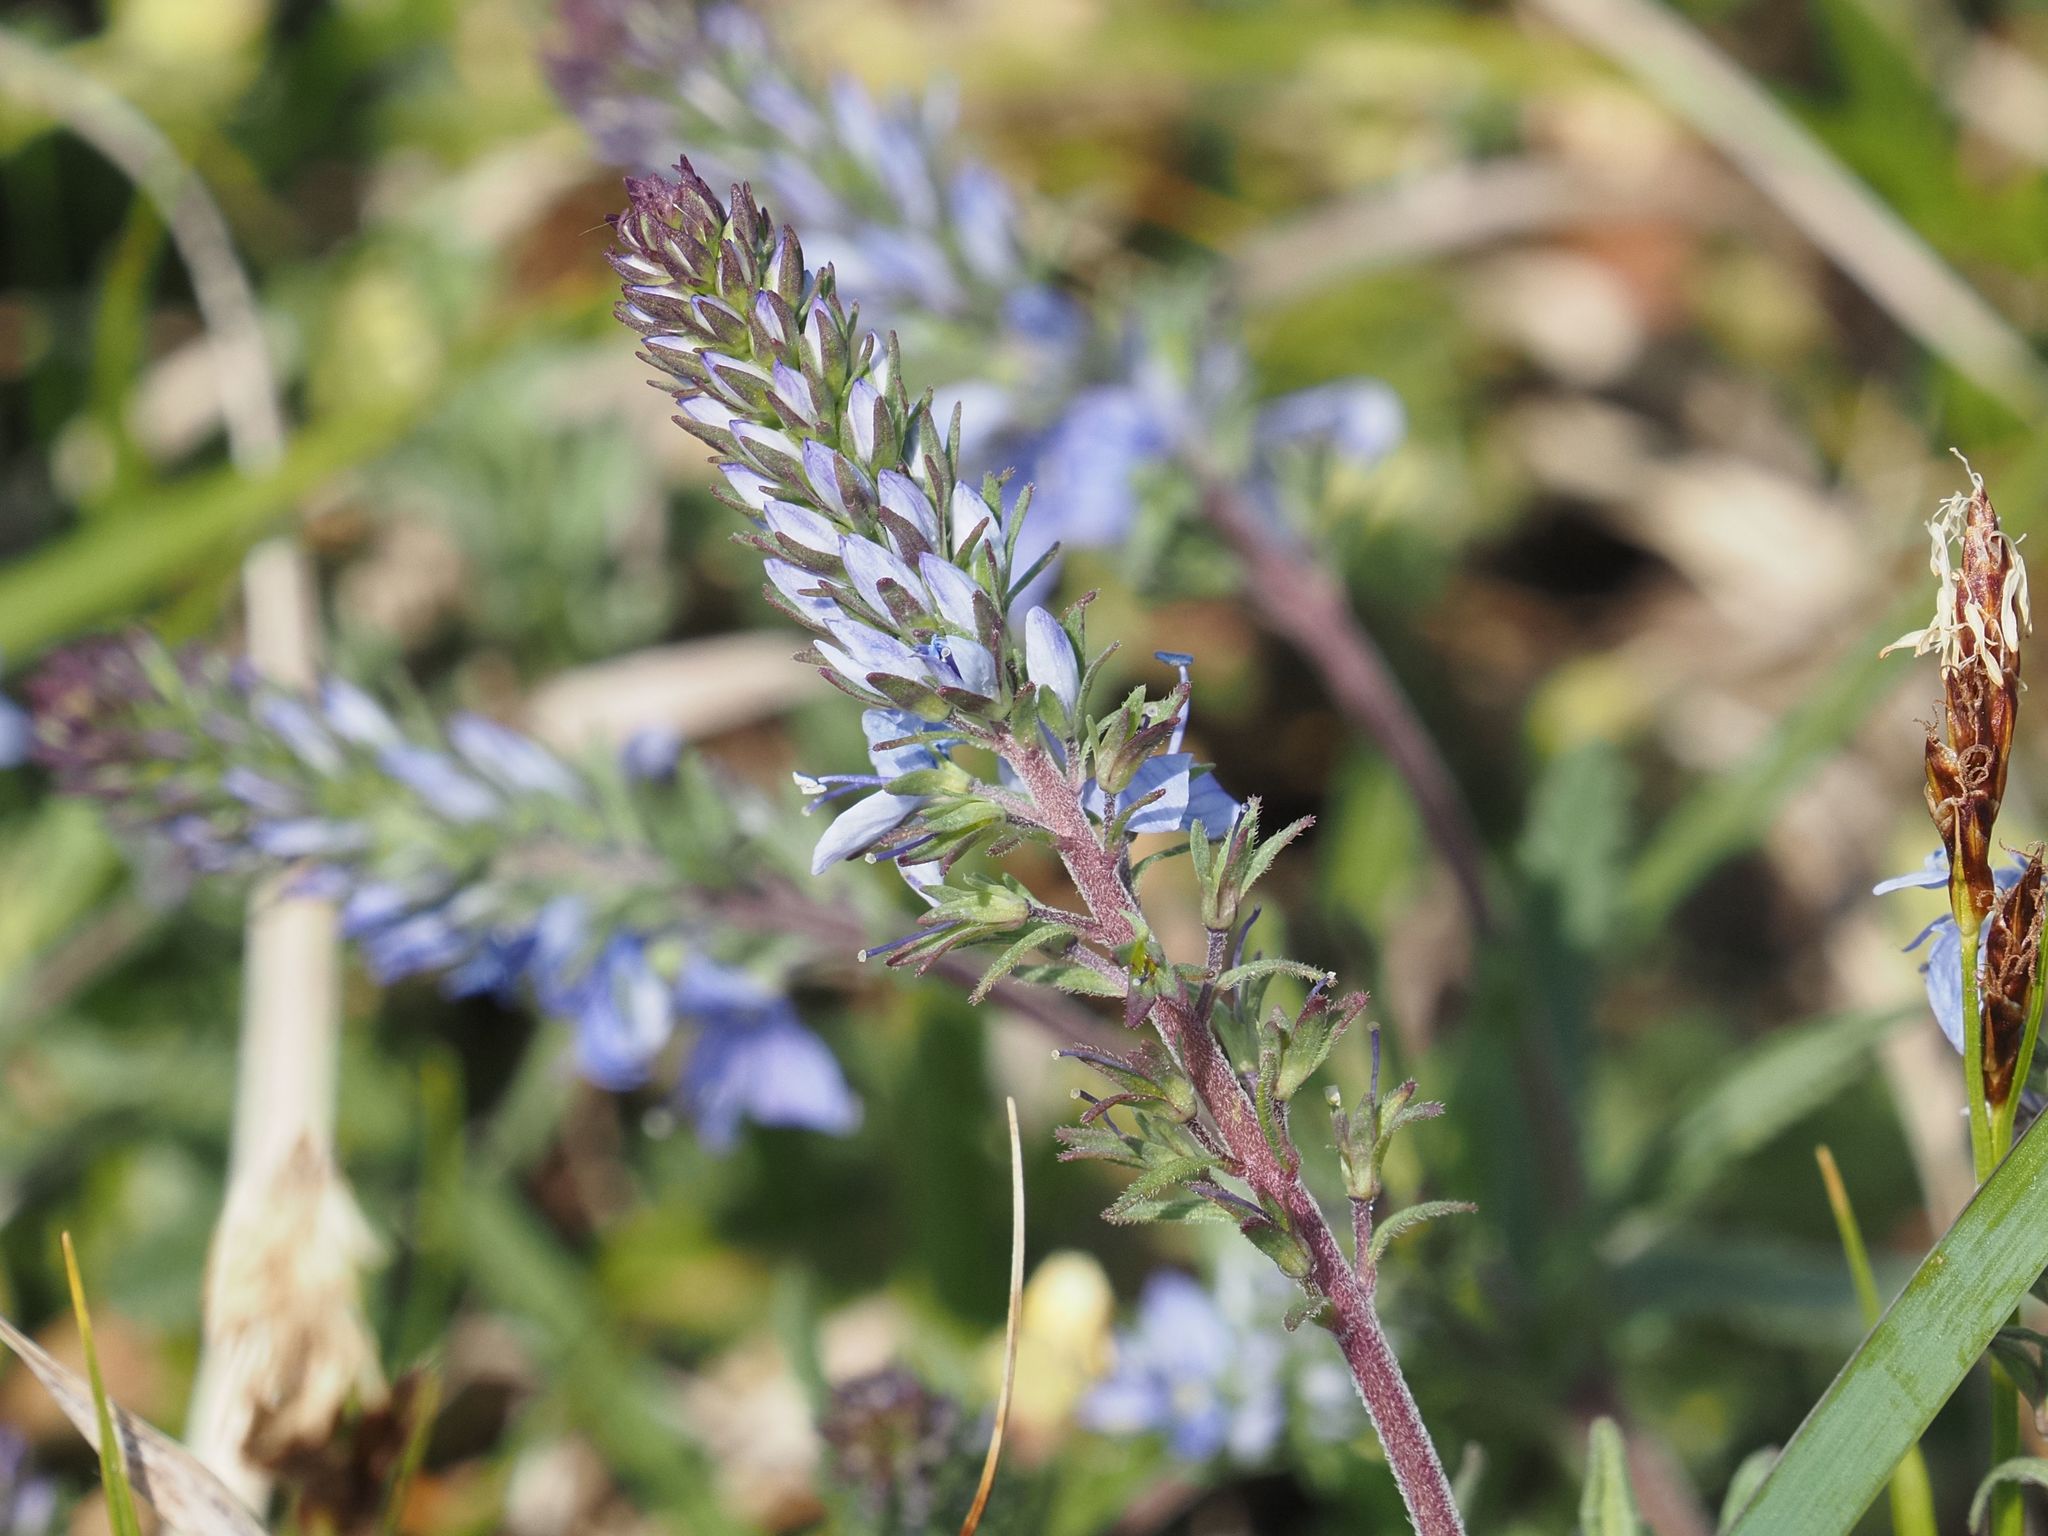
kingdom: Plantae
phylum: Tracheophyta
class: Magnoliopsida
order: Lamiales
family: Plantaginaceae
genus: Veronica
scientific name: Veronica prostrata
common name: Prostrate speedwell
